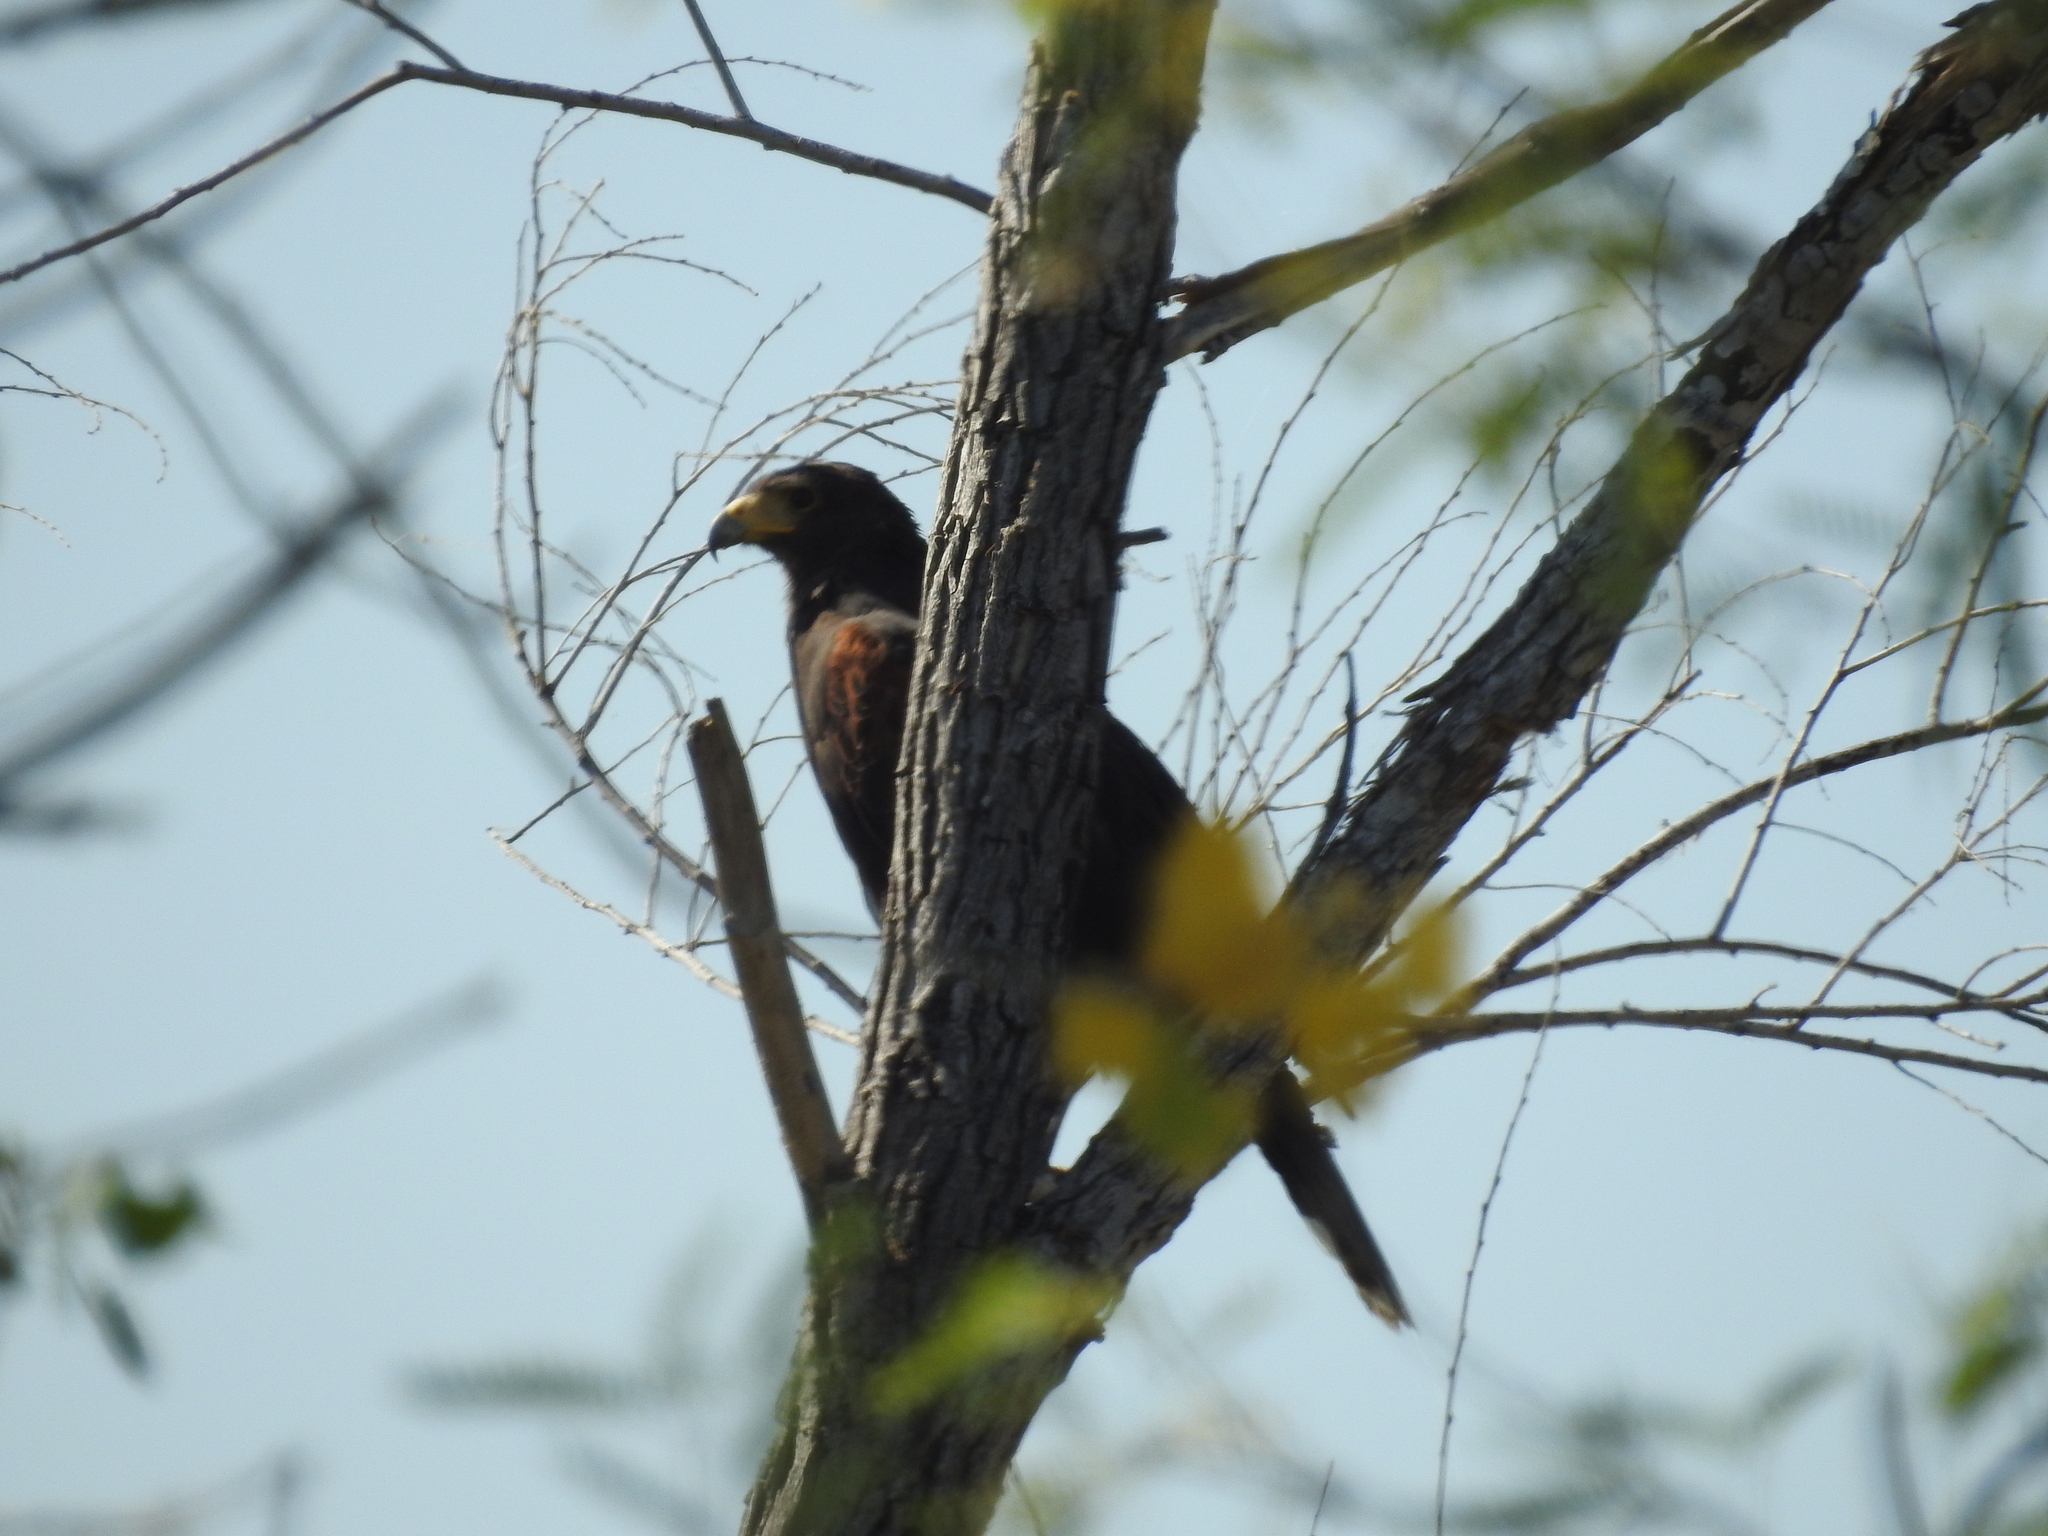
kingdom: Animalia
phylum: Chordata
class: Aves
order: Accipitriformes
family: Accipitridae
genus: Parabuteo
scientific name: Parabuteo unicinctus
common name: Harris's hawk
